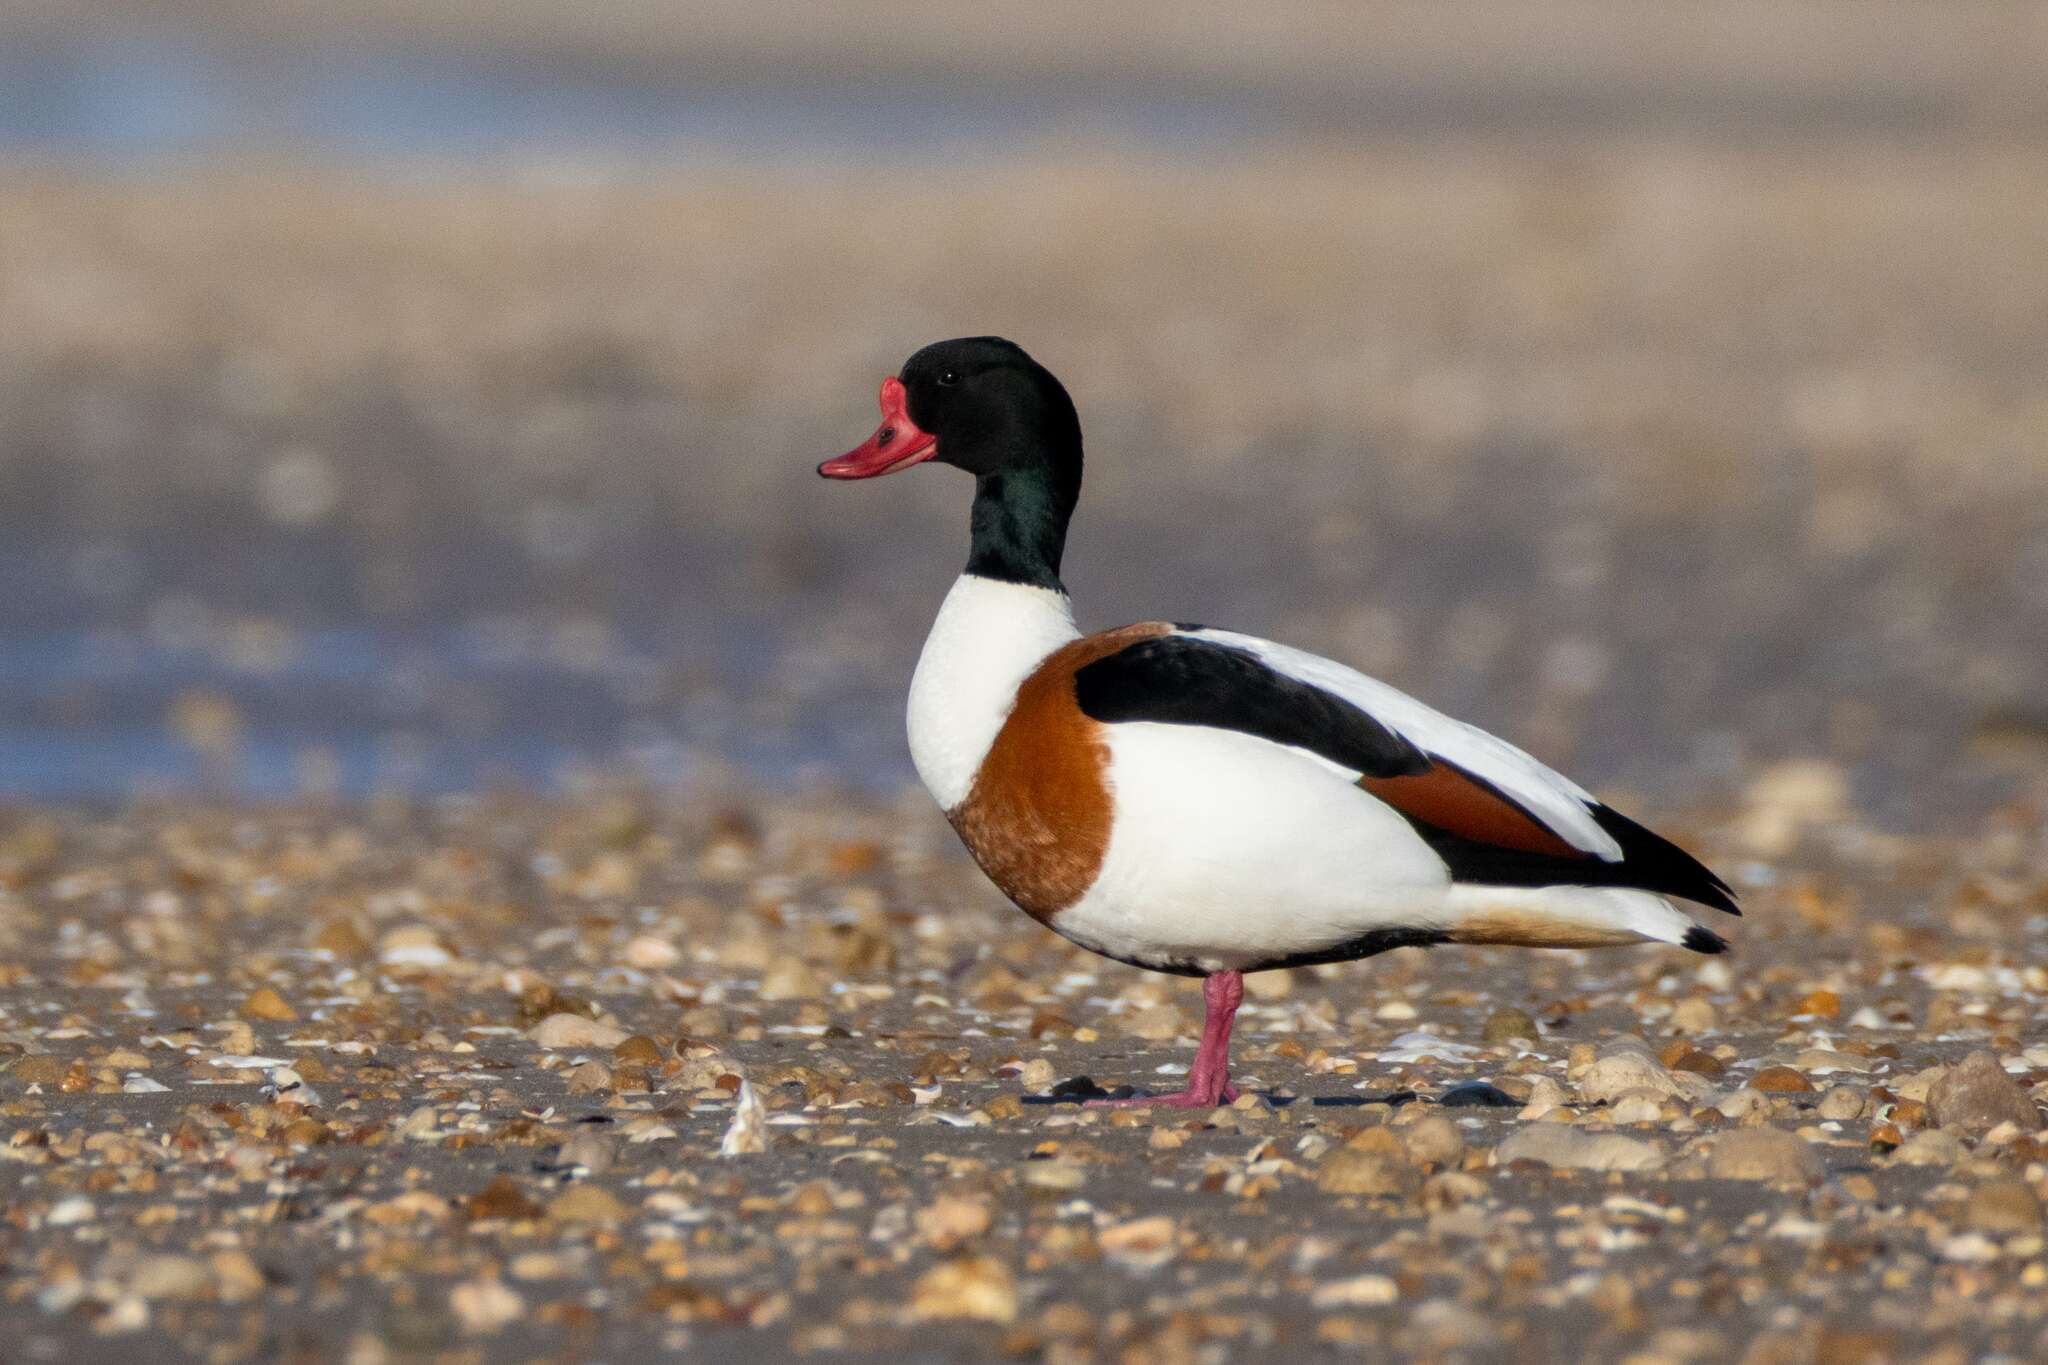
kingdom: Animalia
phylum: Chordata
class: Aves
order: Anseriformes
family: Anatidae
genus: Tadorna
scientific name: Tadorna tadorna
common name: Common shelduck
